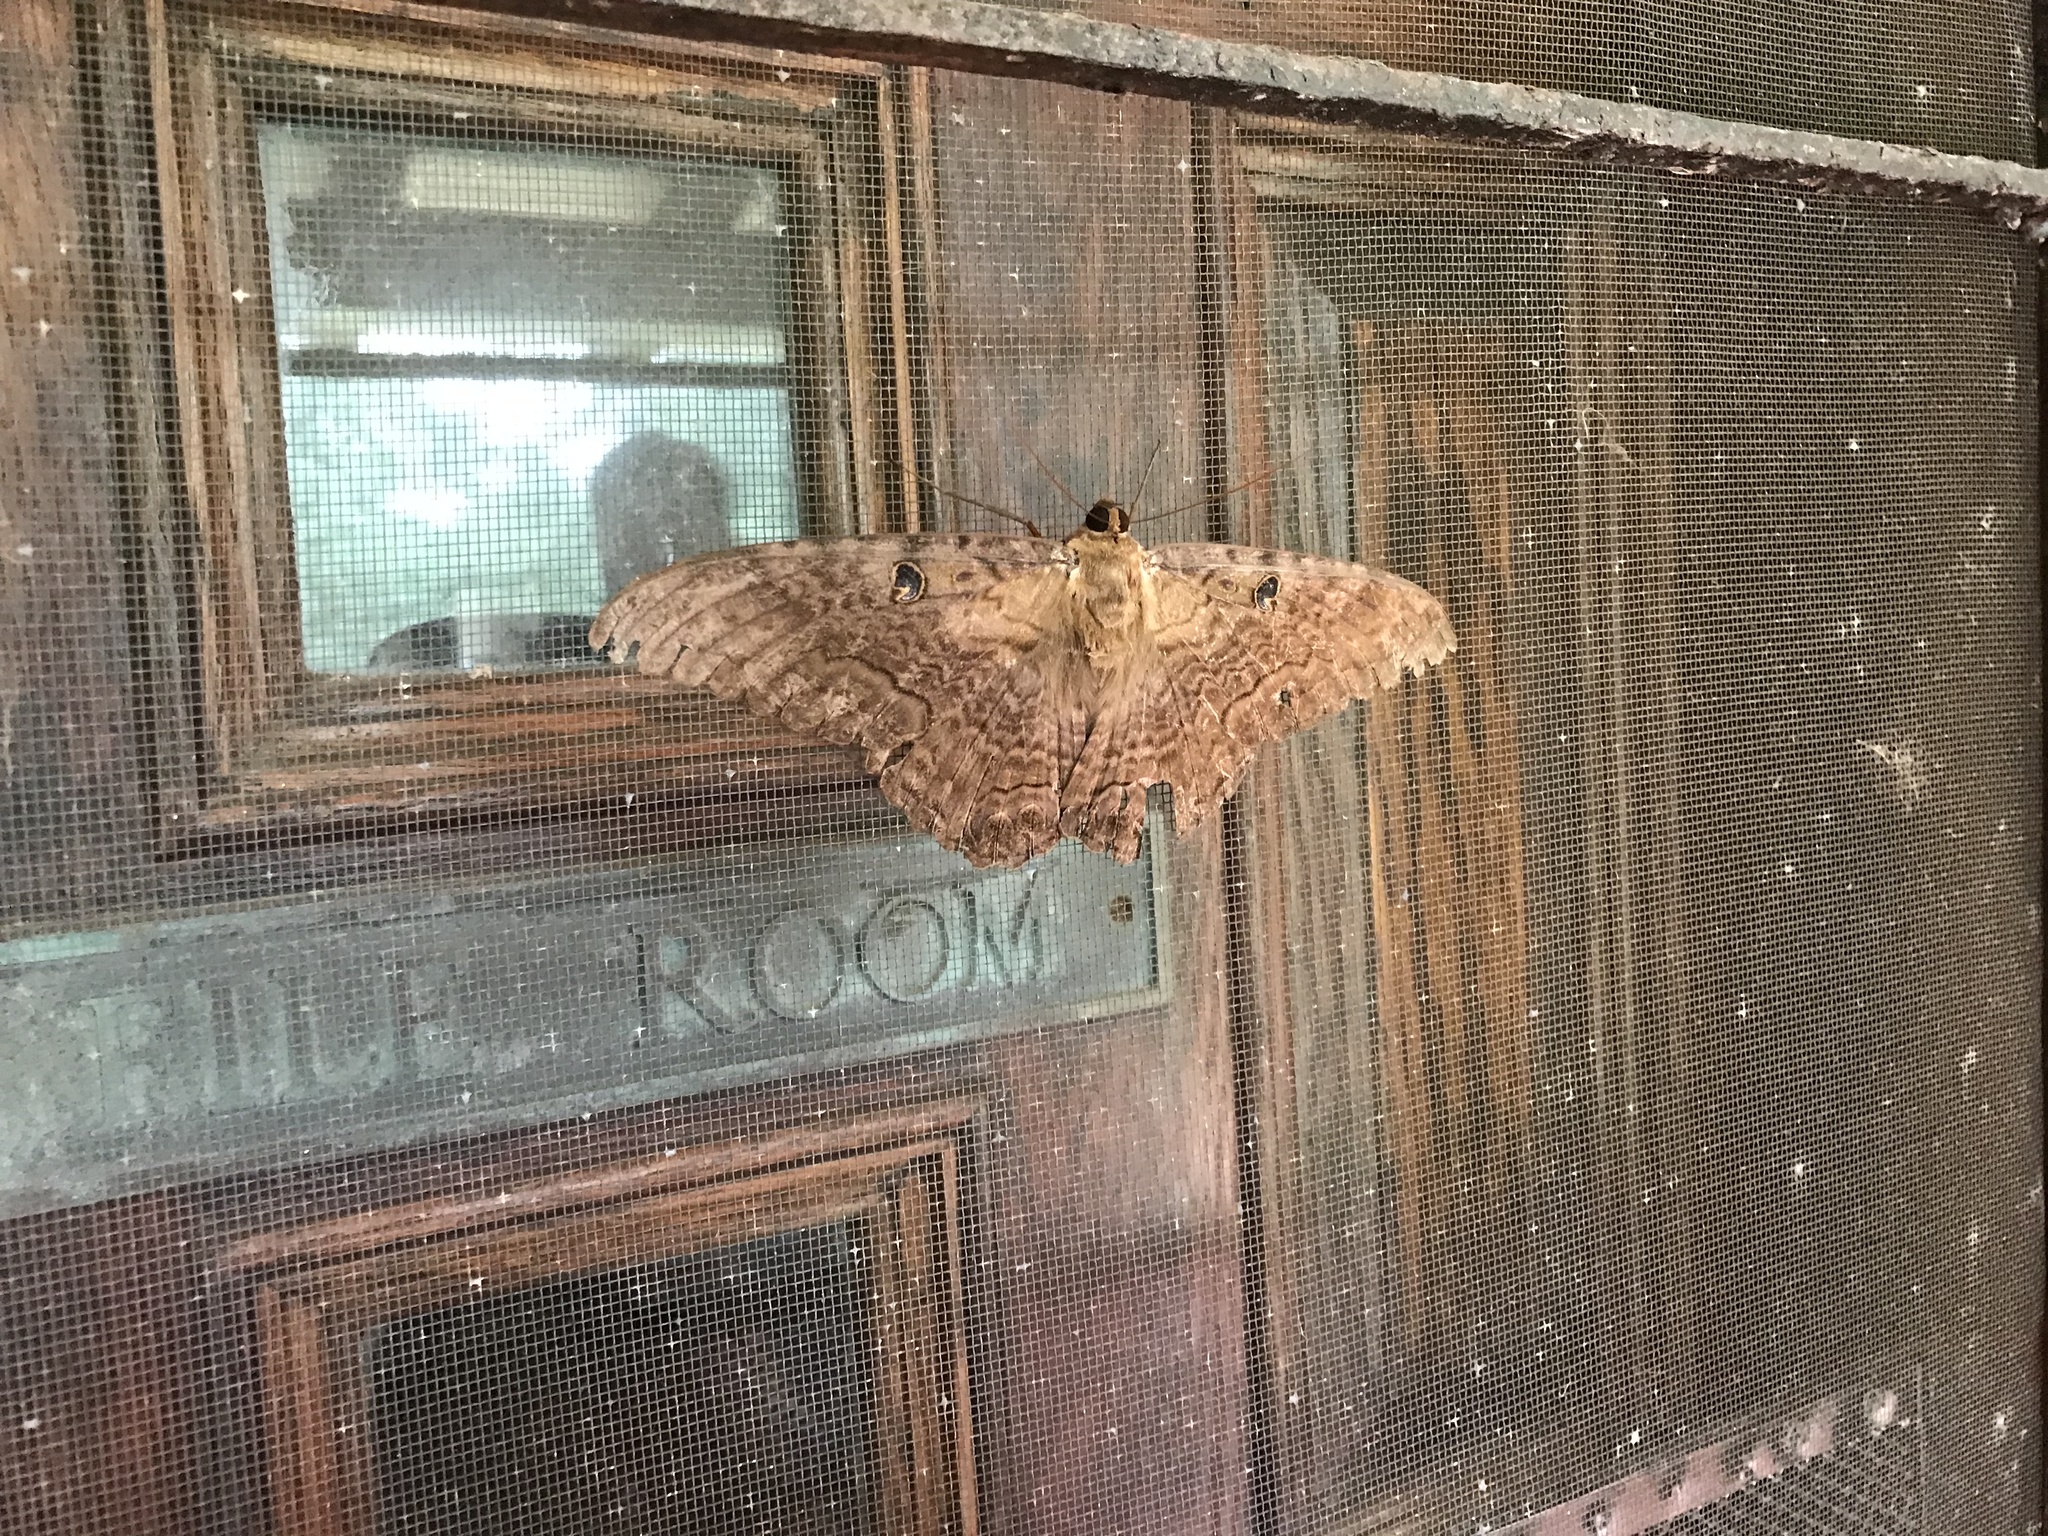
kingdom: Animalia
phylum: Arthropoda
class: Insecta
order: Lepidoptera
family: Erebidae
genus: Ascalapha
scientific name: Ascalapha odorata
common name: Black witch
